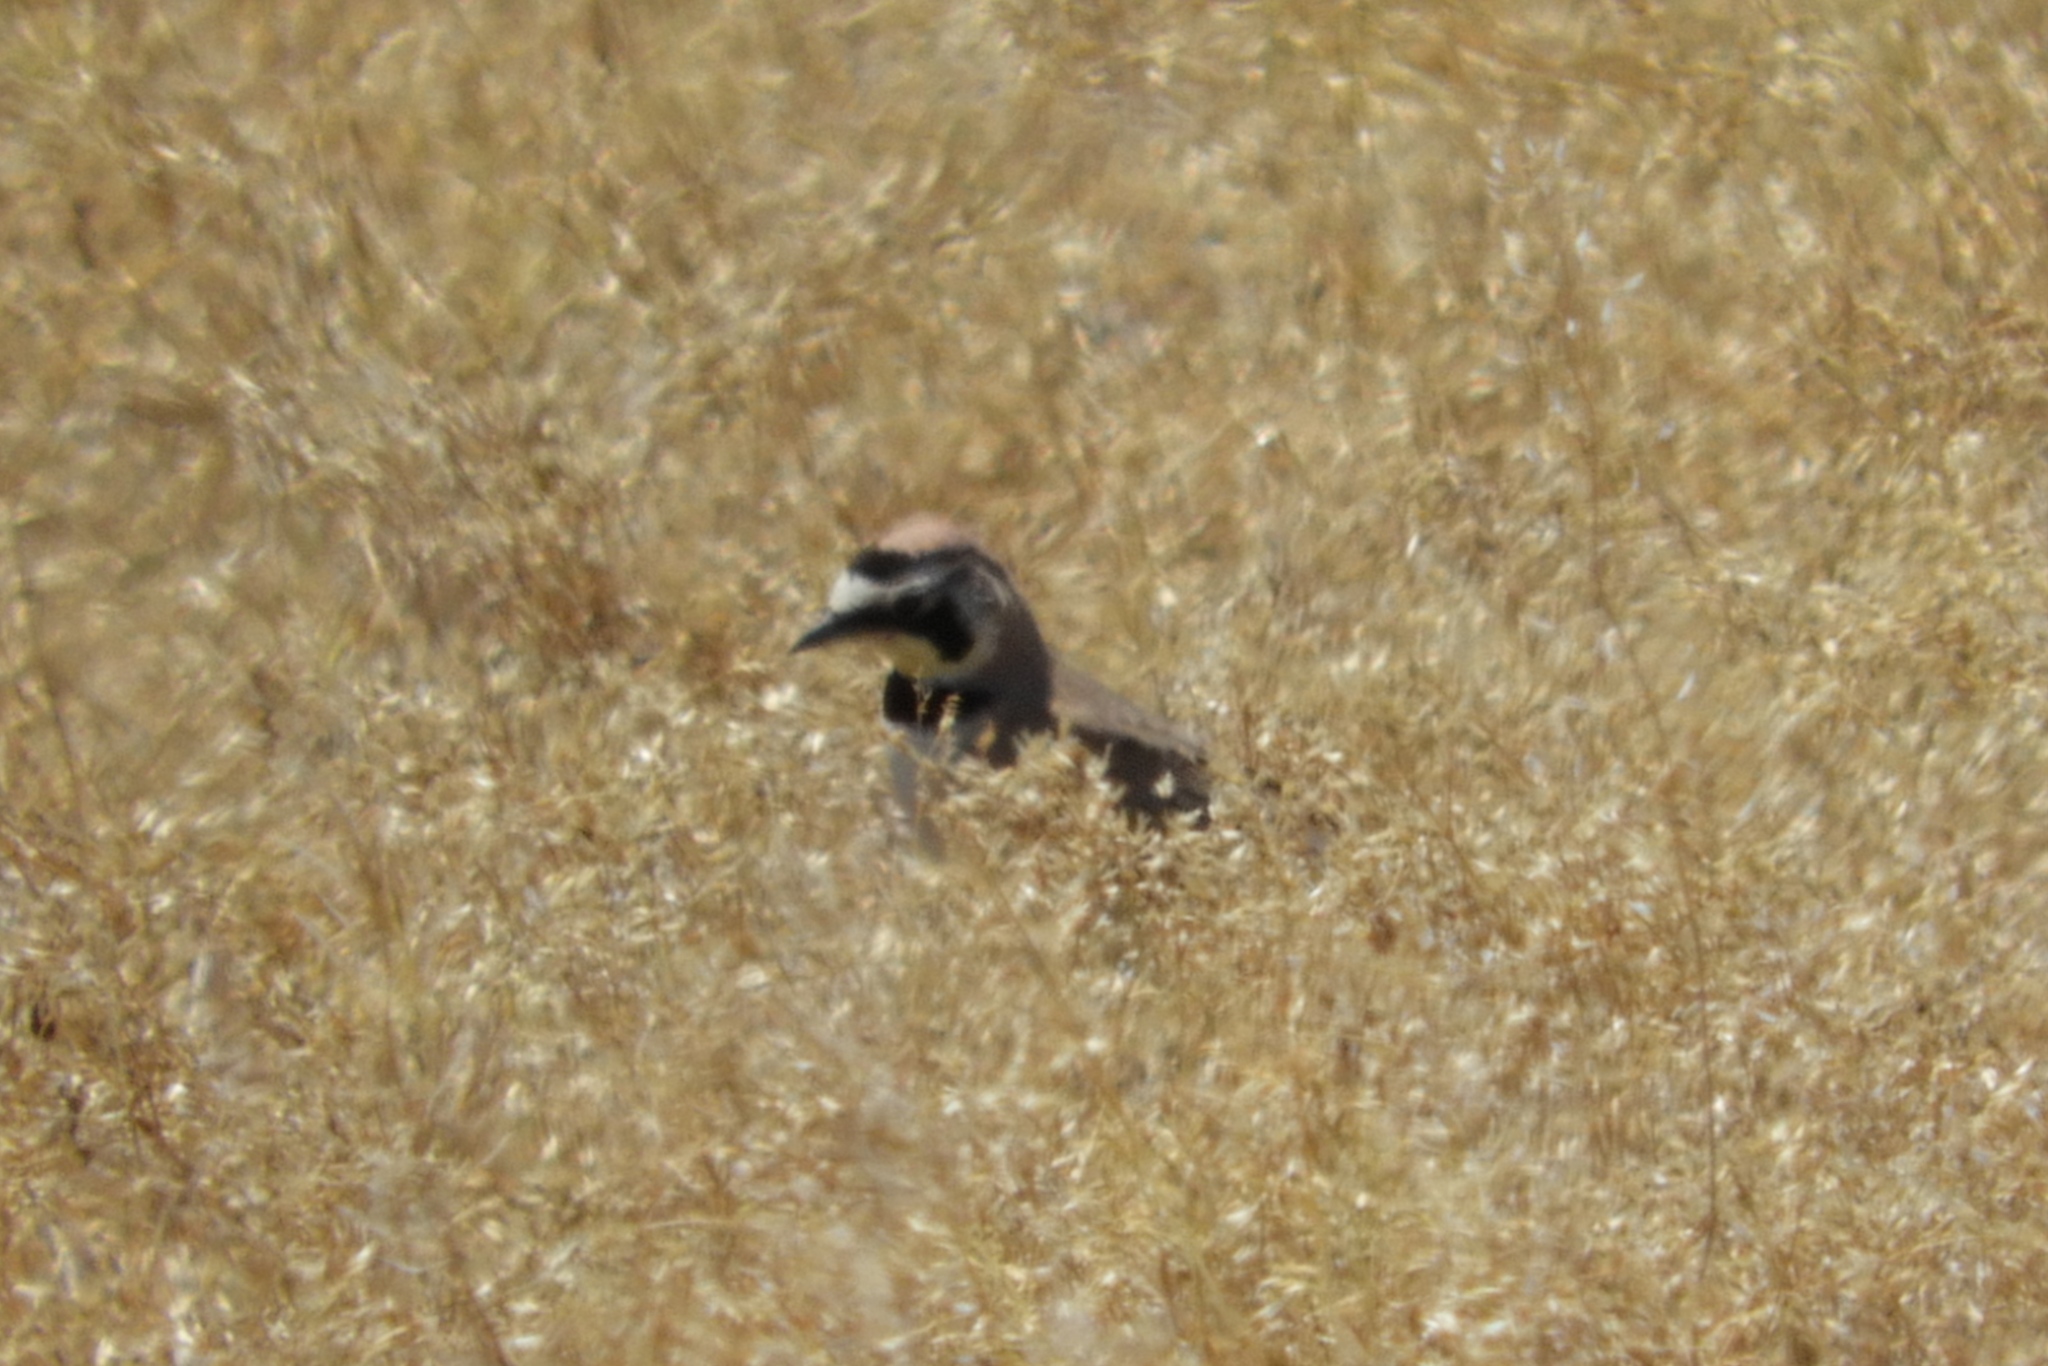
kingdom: Animalia
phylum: Chordata
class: Aves
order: Passeriformes
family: Alaudidae
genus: Eremophila
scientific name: Eremophila alpestris
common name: Horned lark
